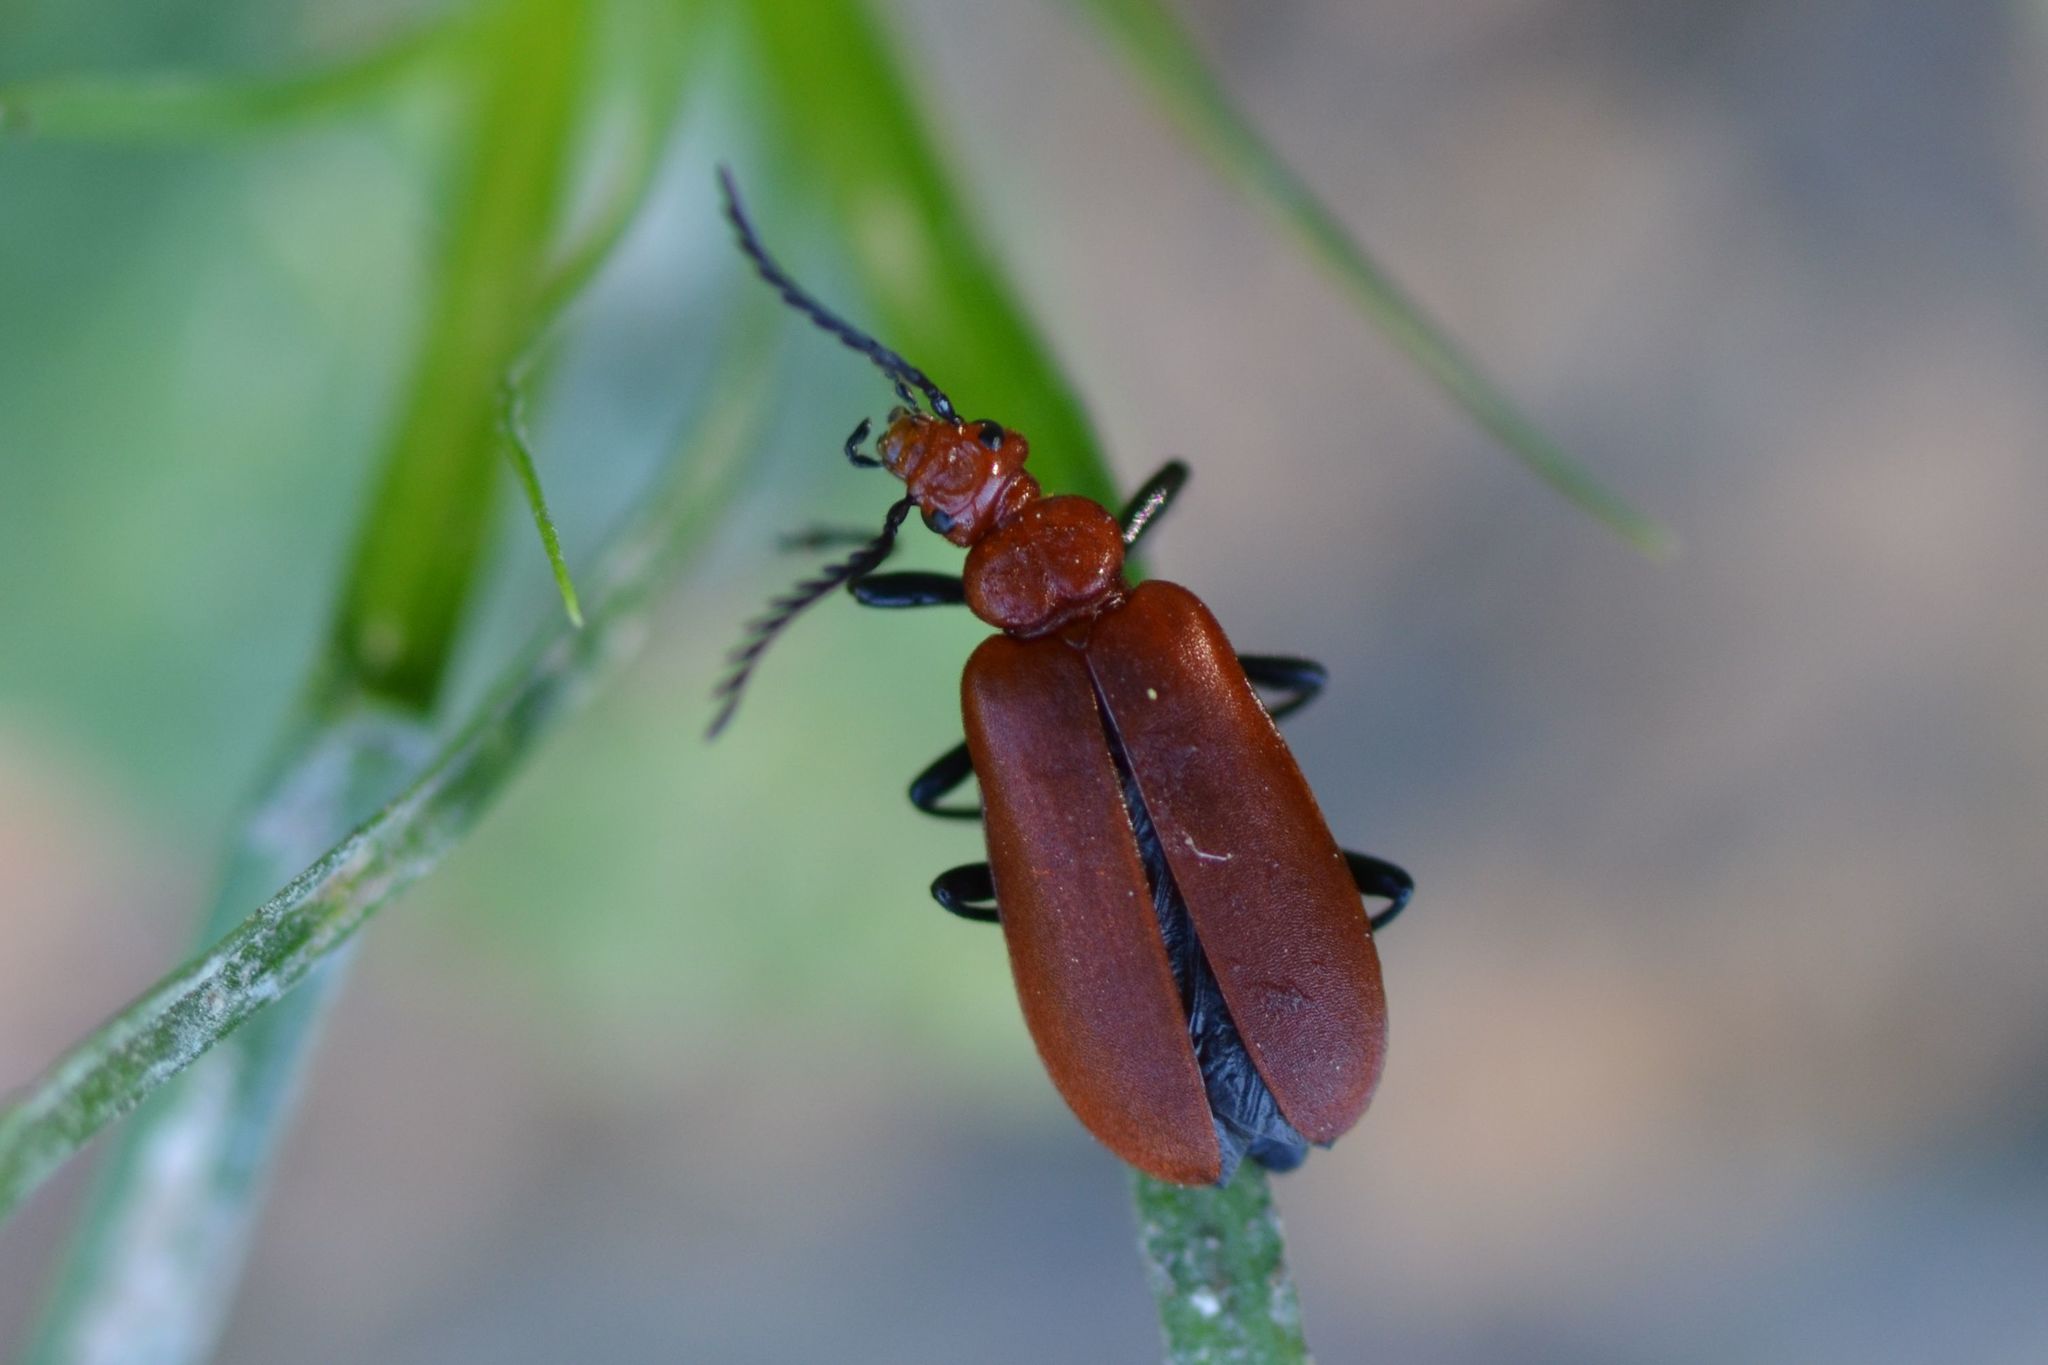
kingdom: Animalia
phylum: Arthropoda
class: Insecta
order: Coleoptera
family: Pyrochroidae
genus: Pyrochroa
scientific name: Pyrochroa serraticornis
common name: Red-headed cardinal beetle
